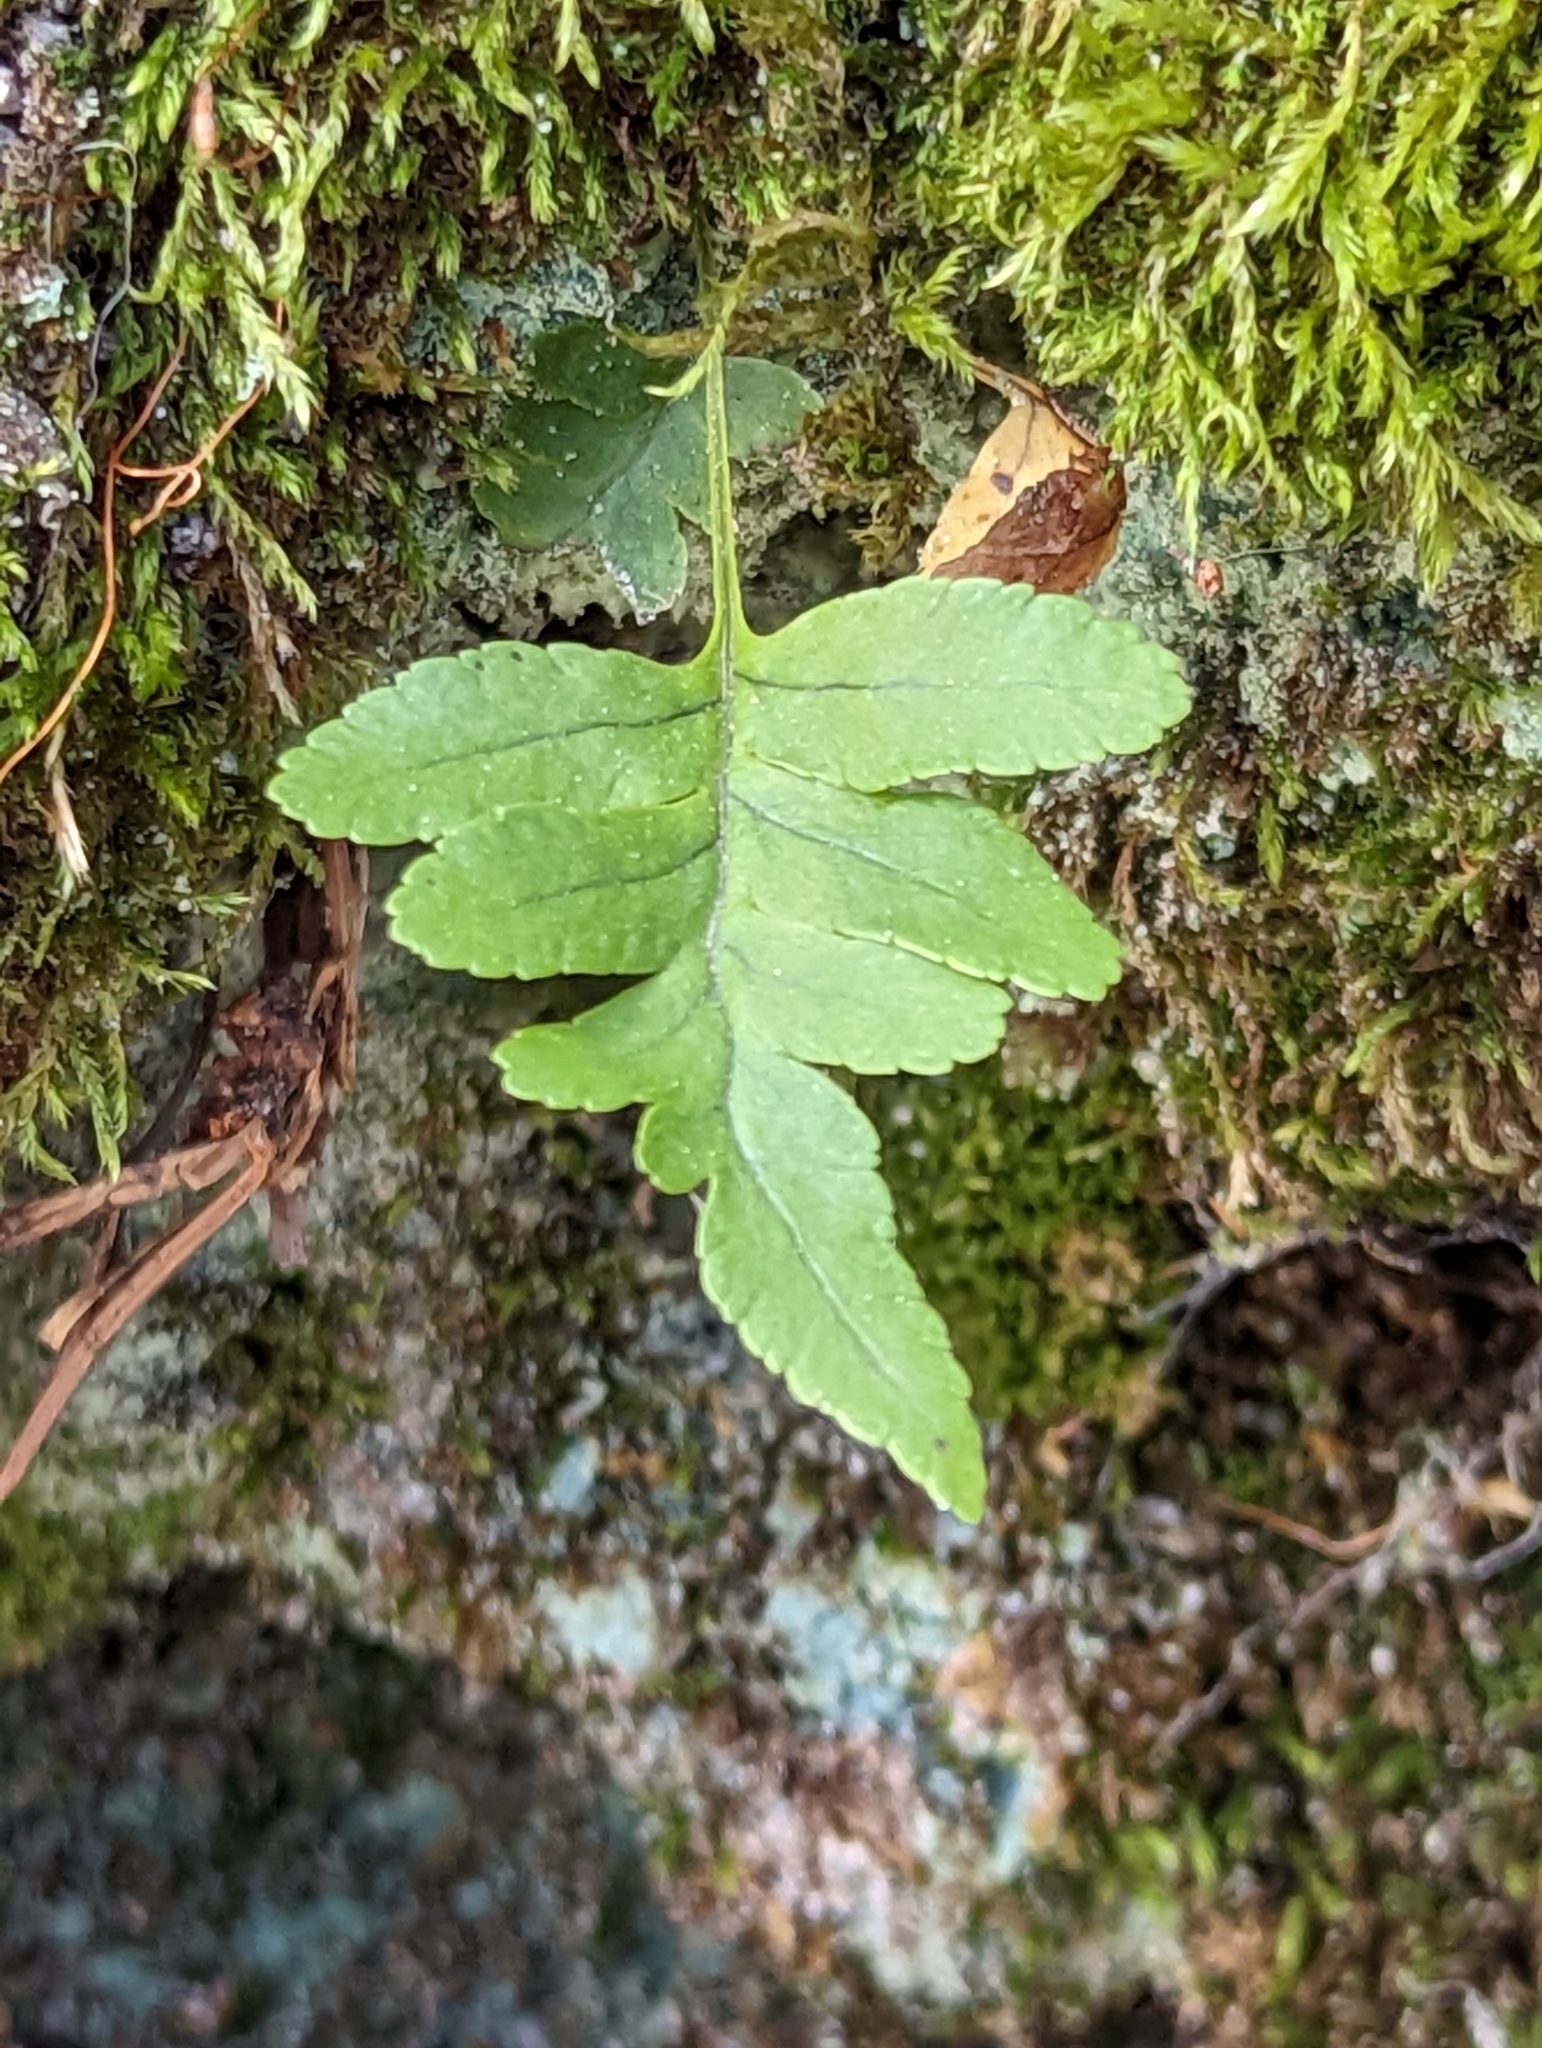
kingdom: Plantae
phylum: Tracheophyta
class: Polypodiopsida
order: Polypodiales
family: Polypodiaceae
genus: Polypodium
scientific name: Polypodium virginianum
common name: American wall fern
